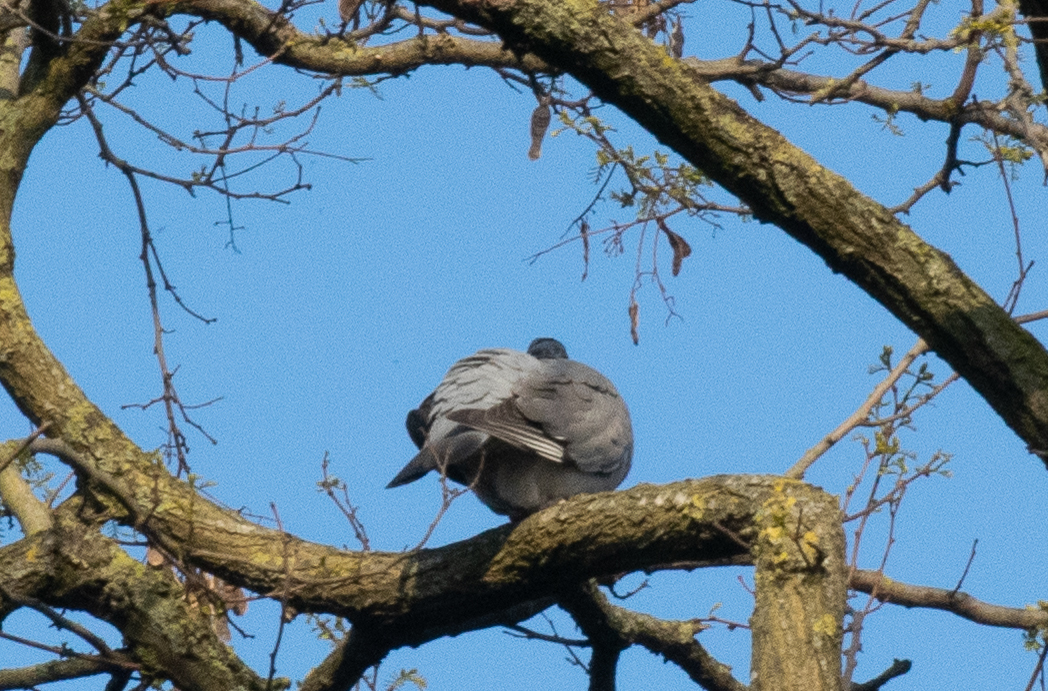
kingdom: Animalia
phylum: Chordata
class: Aves
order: Columbiformes
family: Columbidae
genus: Columba
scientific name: Columba palumbus
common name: Common wood pigeon
